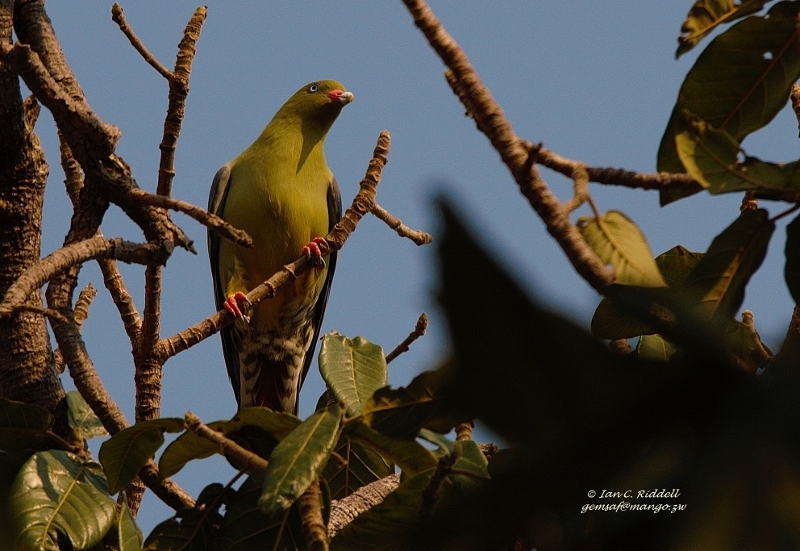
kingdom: Plantae
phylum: Tracheophyta
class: Magnoliopsida
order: Rosales
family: Moraceae
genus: Ficus
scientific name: Ficus bussei
